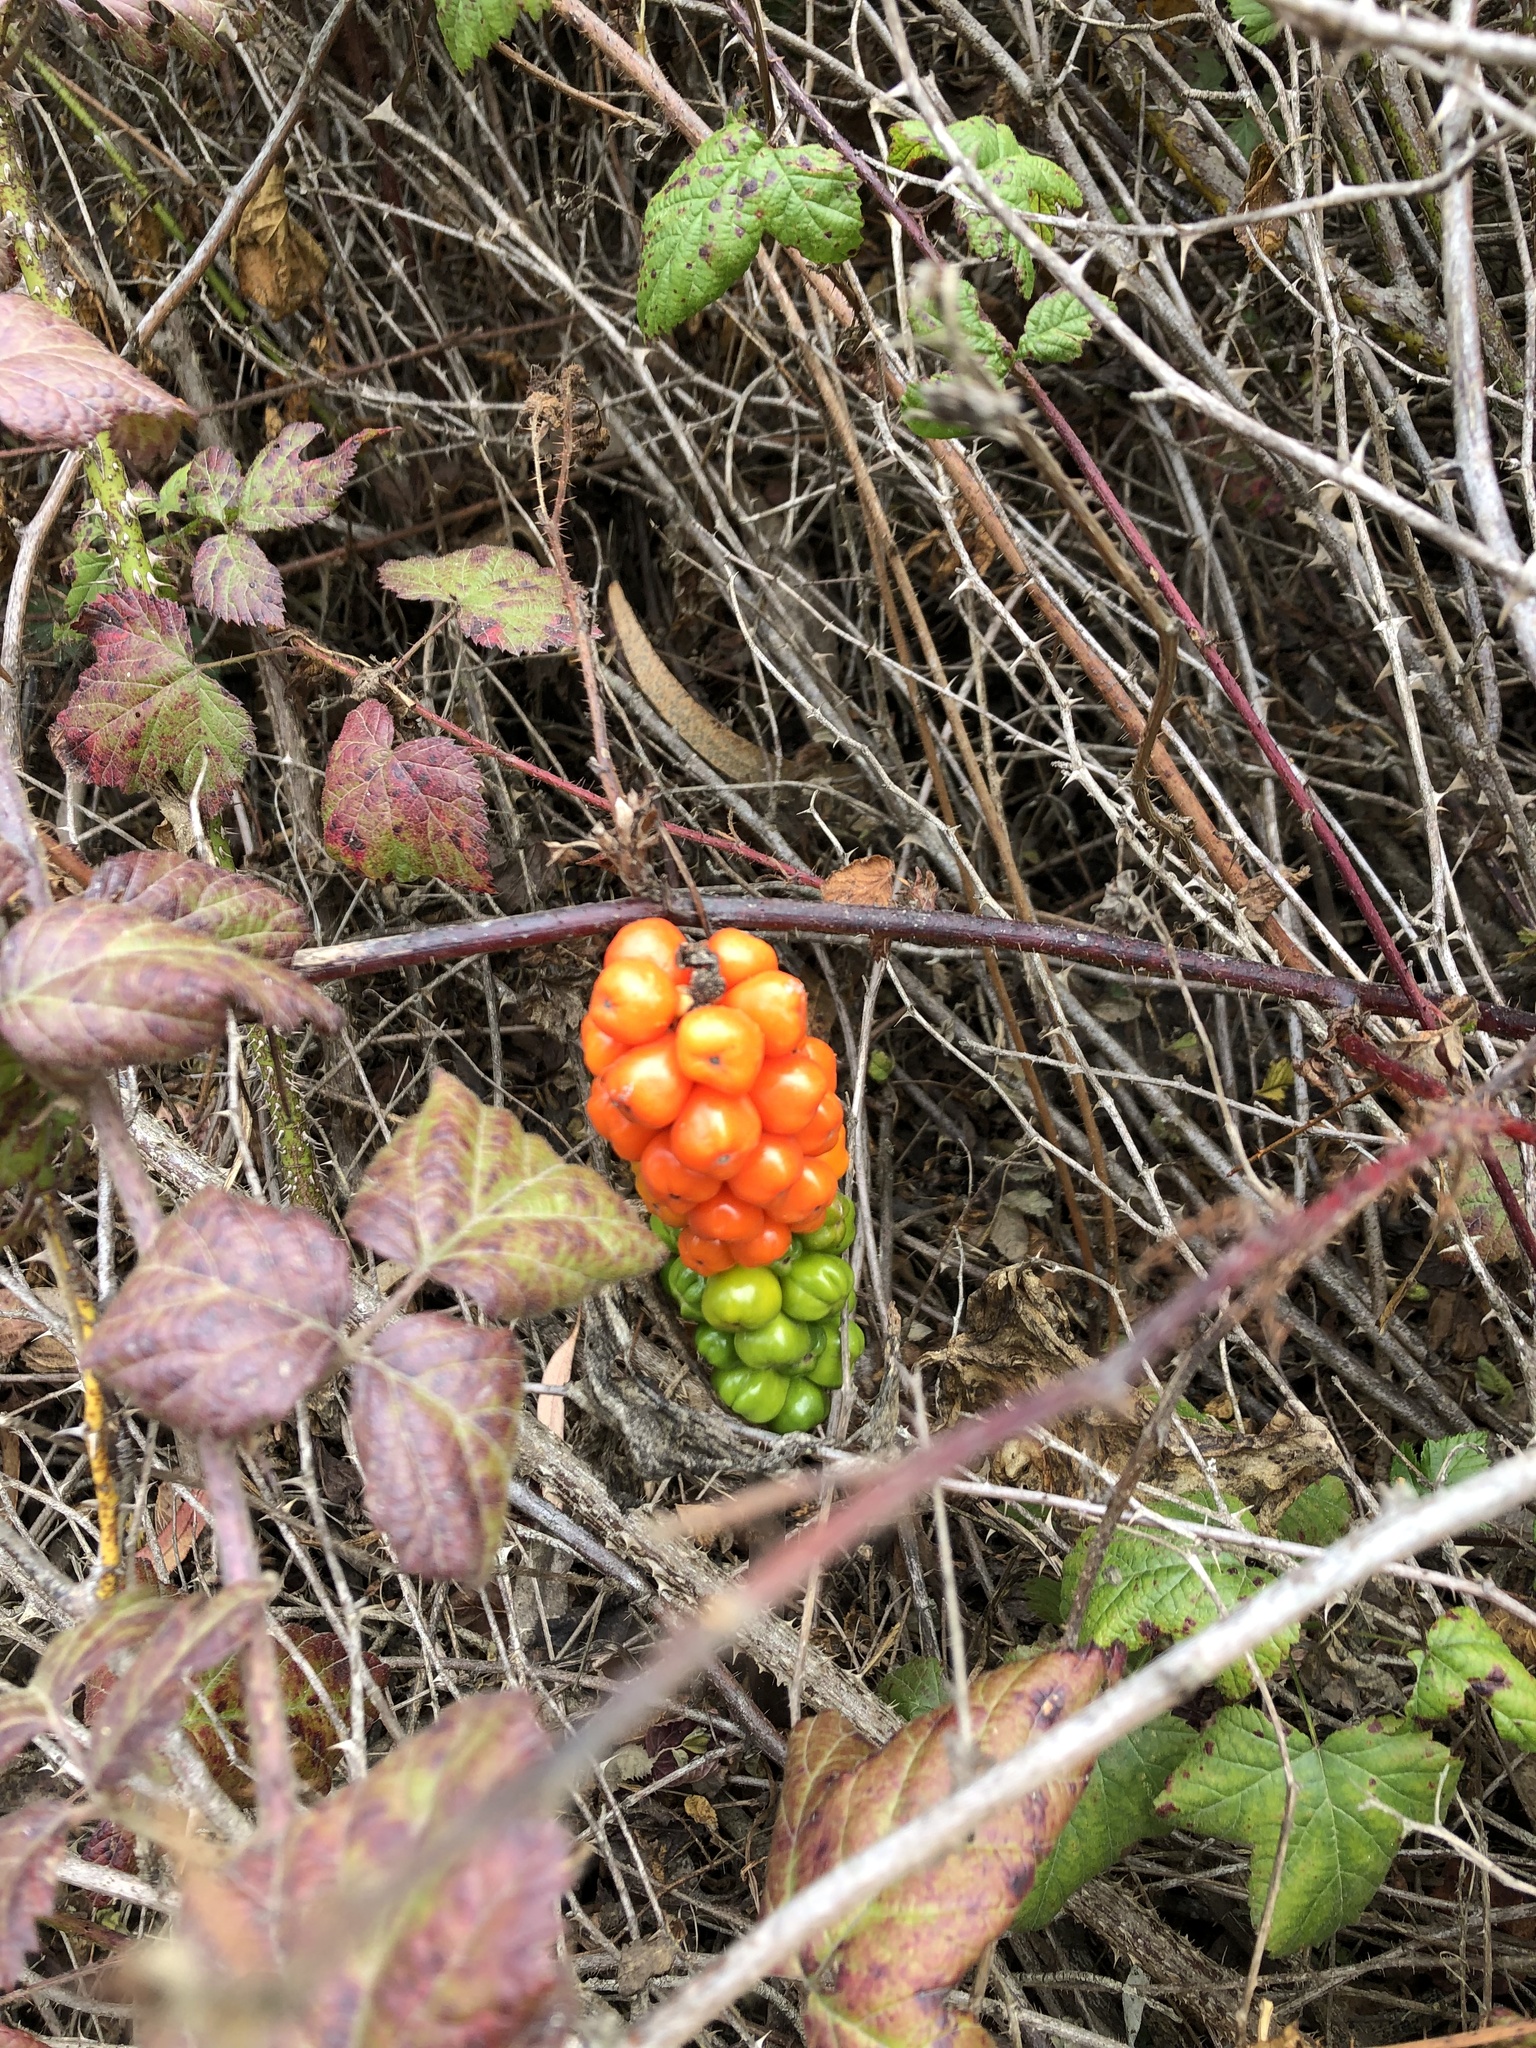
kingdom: Plantae
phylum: Tracheophyta
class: Liliopsida
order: Alismatales
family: Araceae
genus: Arum
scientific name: Arum italicum
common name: Italian lords-and-ladies
